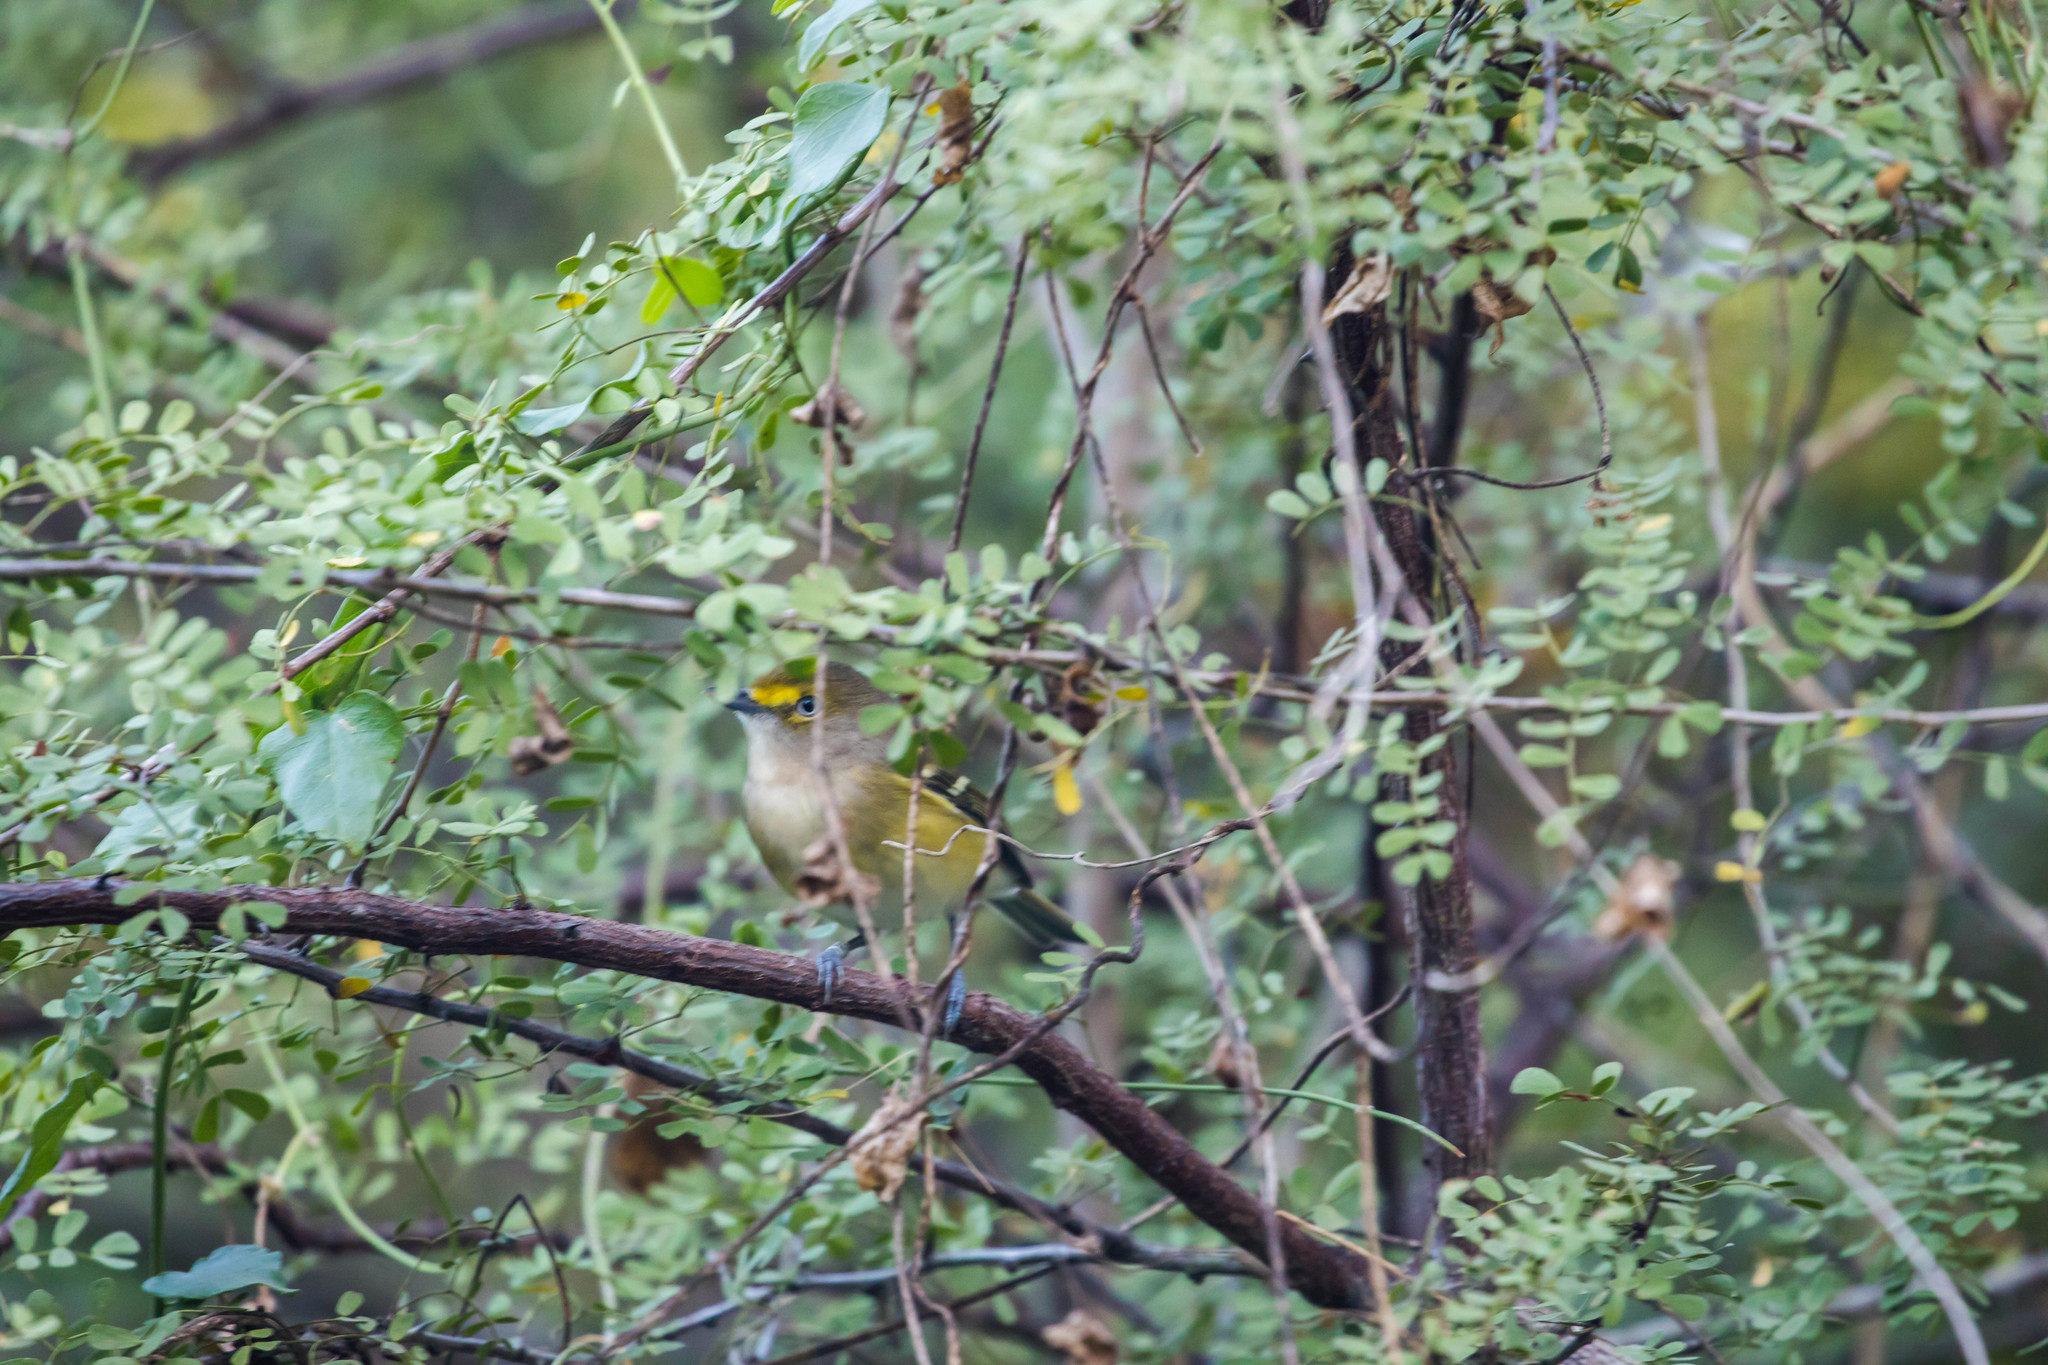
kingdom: Animalia
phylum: Chordata
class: Aves
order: Passeriformes
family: Vireonidae
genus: Vireo
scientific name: Vireo griseus
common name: White-eyed vireo
